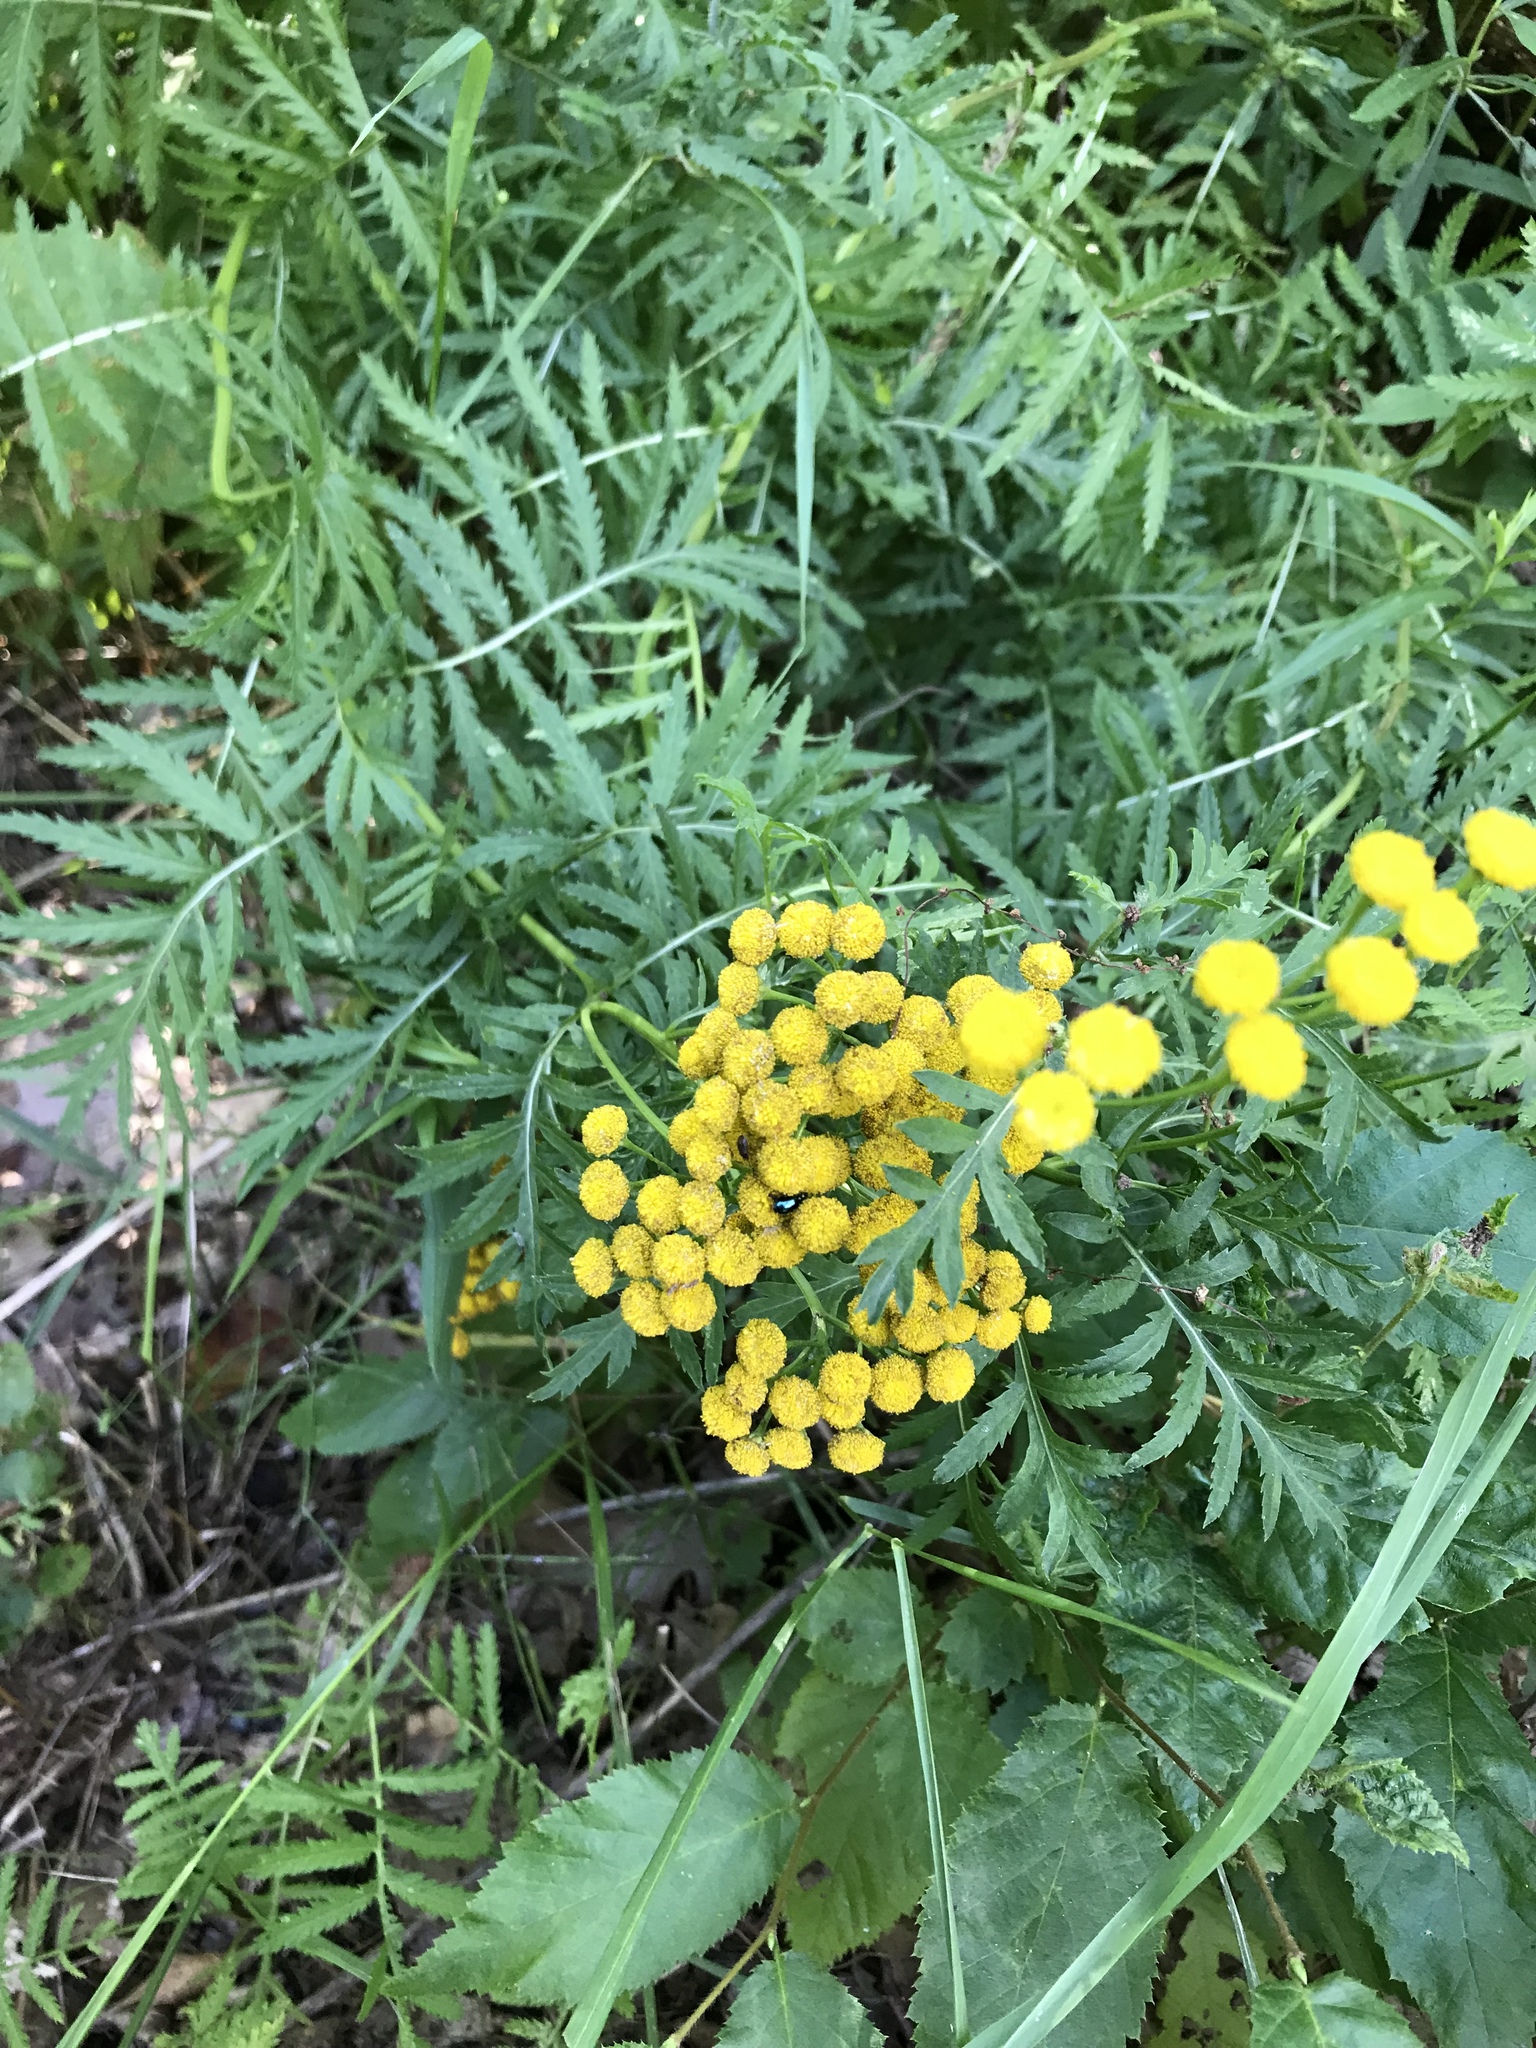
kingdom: Plantae
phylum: Tracheophyta
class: Magnoliopsida
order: Asterales
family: Asteraceae
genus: Tanacetum
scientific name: Tanacetum vulgare
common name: Common tansy
